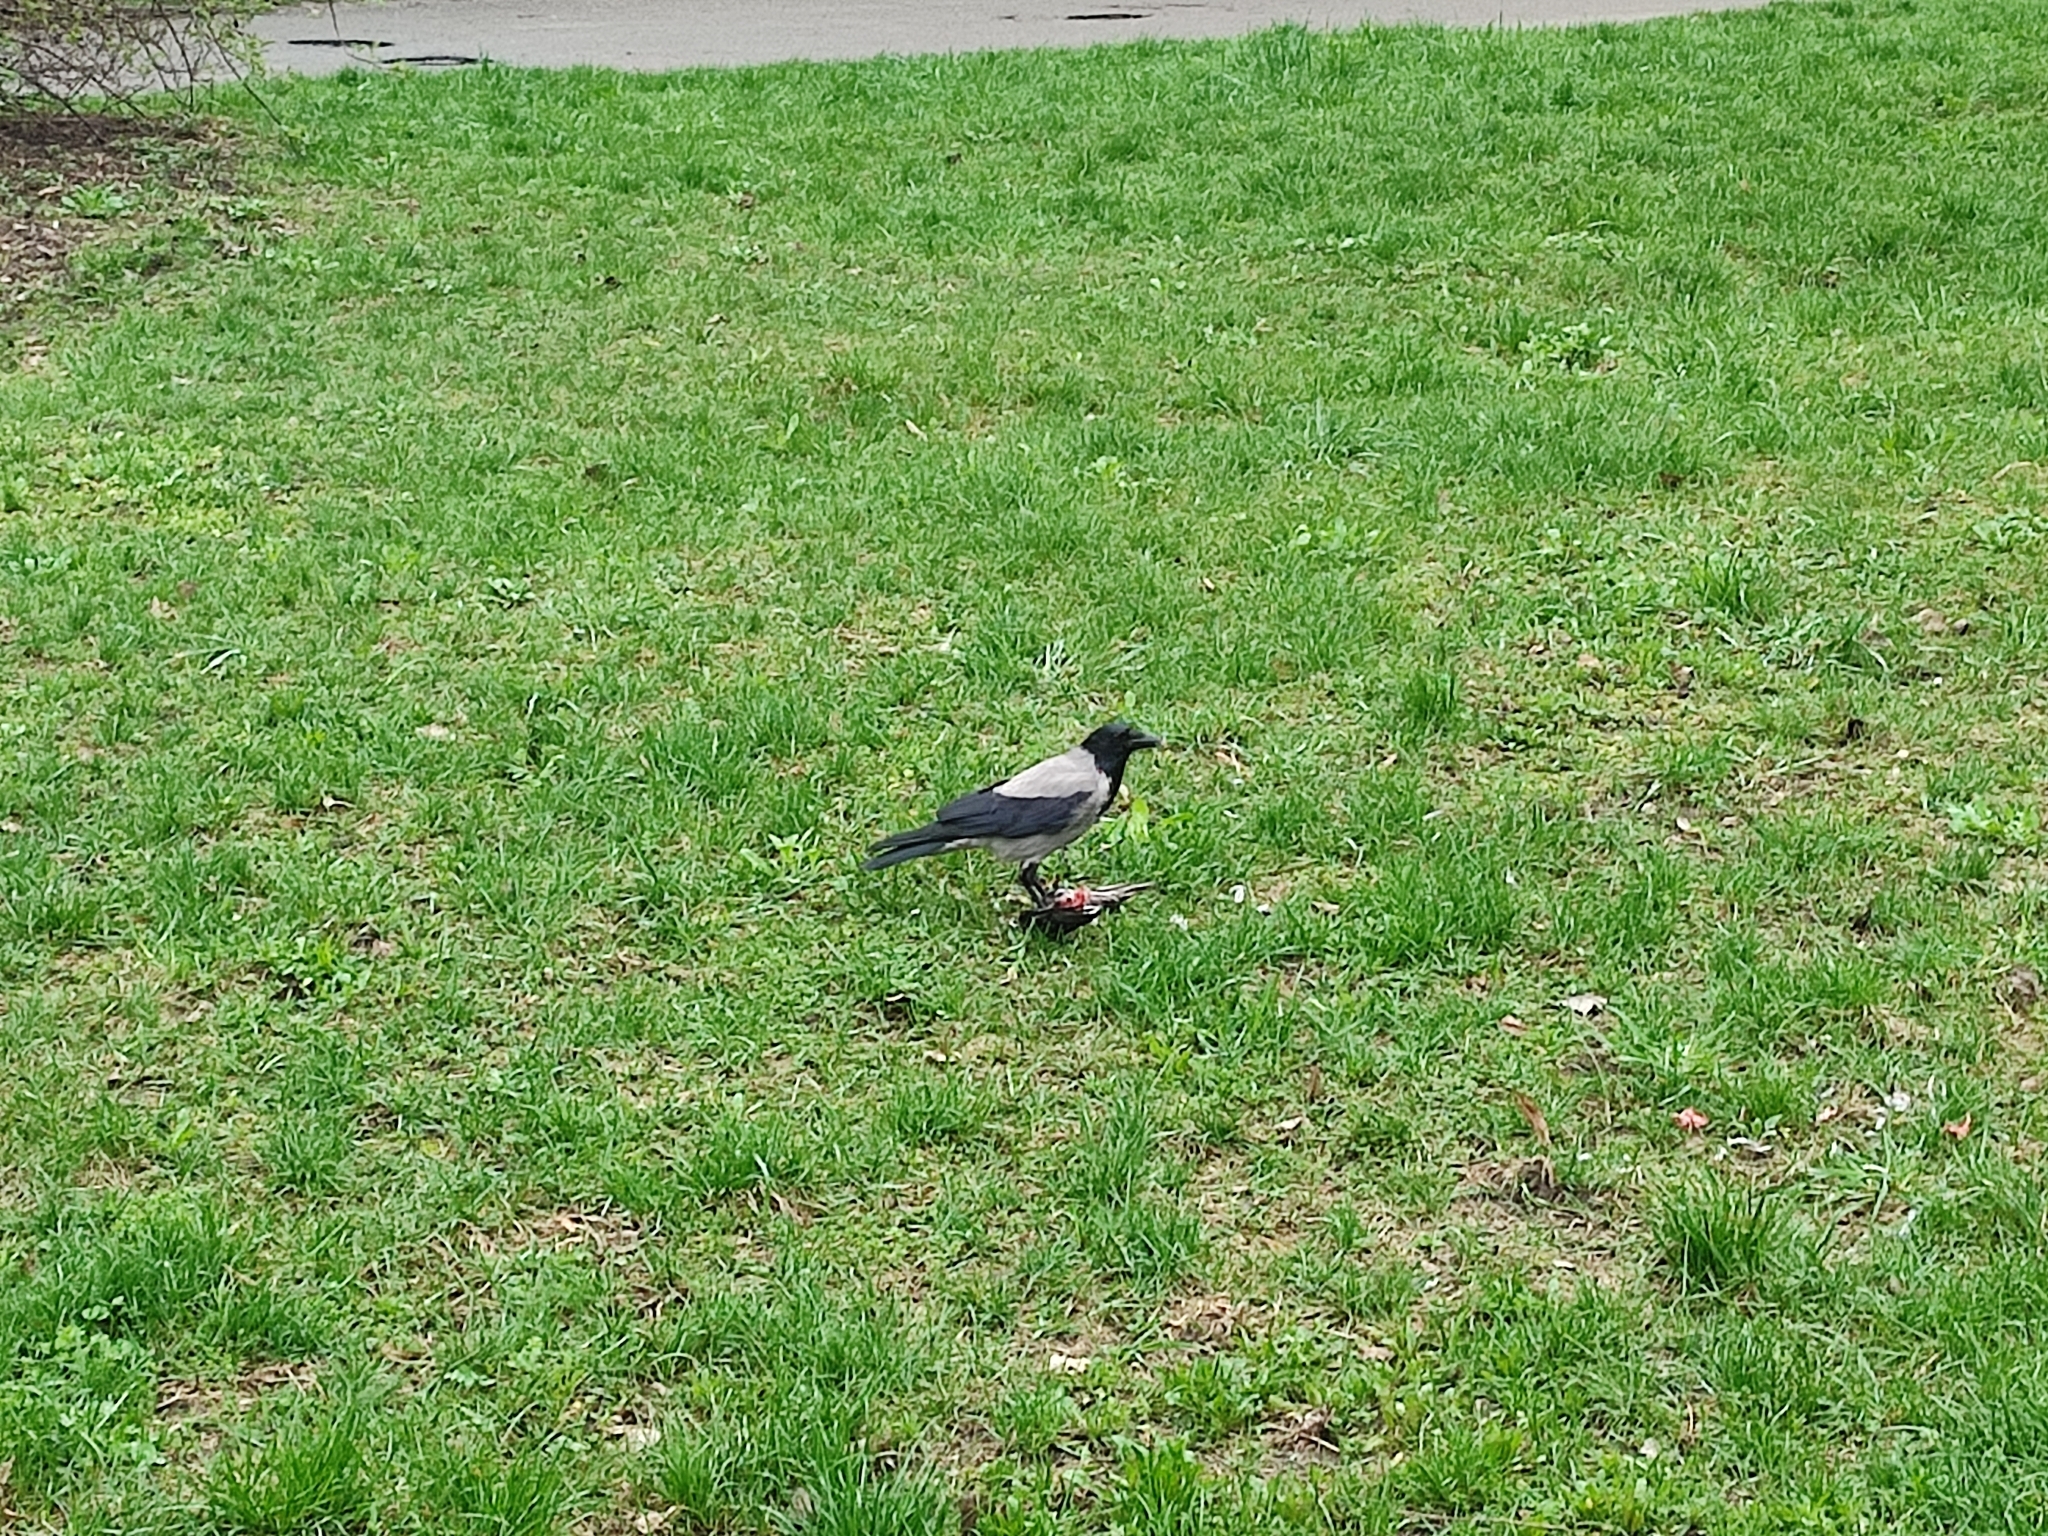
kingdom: Animalia
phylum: Chordata
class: Aves
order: Passeriformes
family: Corvidae
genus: Corvus
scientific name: Corvus cornix
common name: Hooded crow
